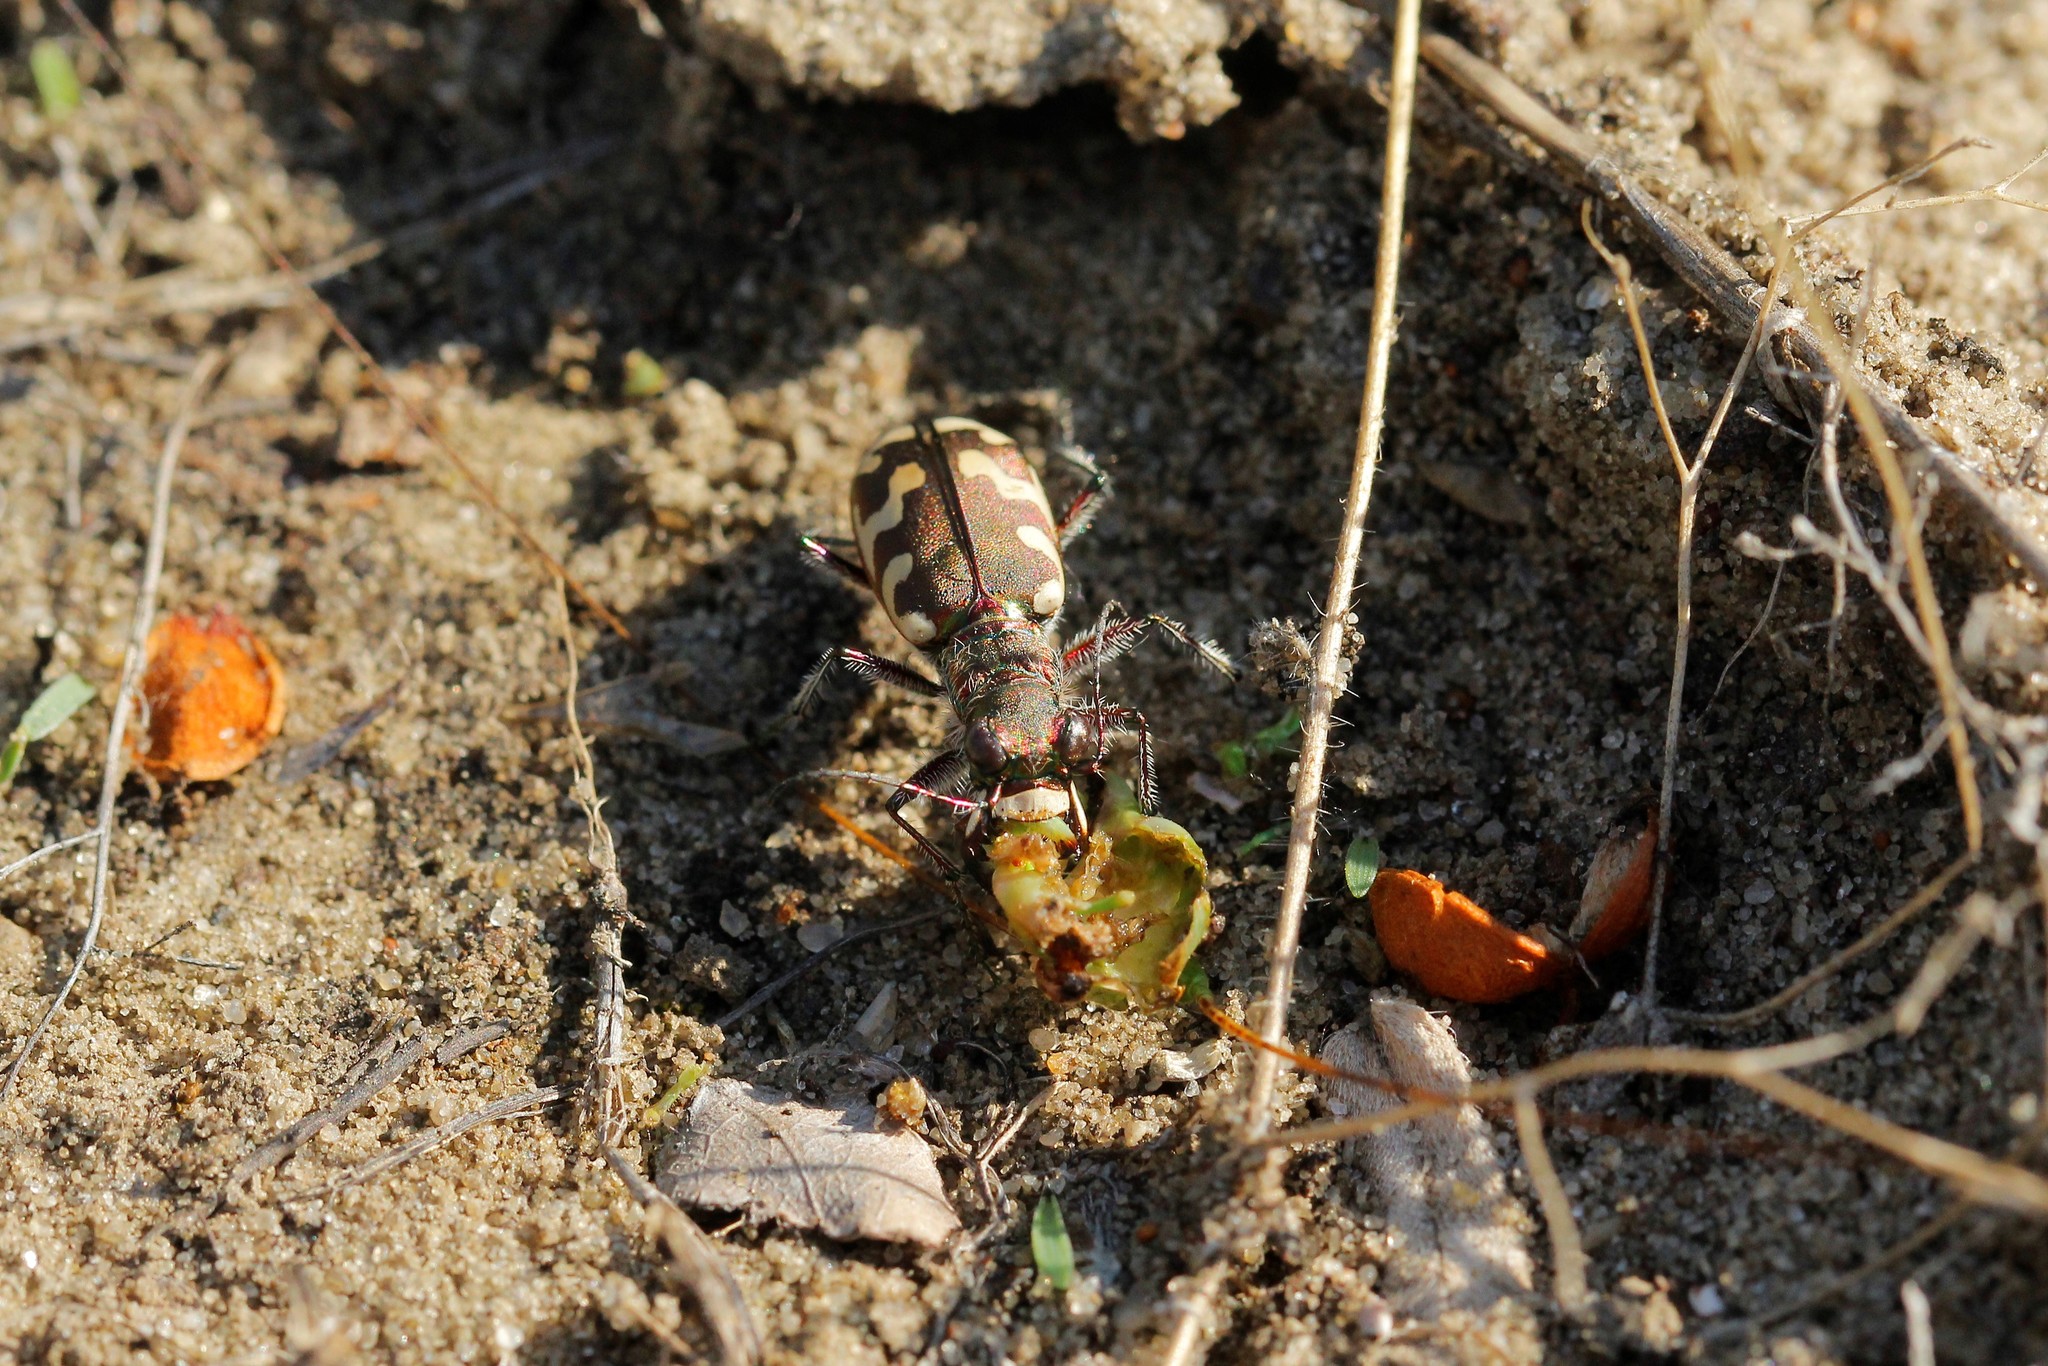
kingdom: Animalia
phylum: Arthropoda
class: Insecta
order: Coleoptera
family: Carabidae
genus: Cicindela
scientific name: Cicindela sahlbergii
